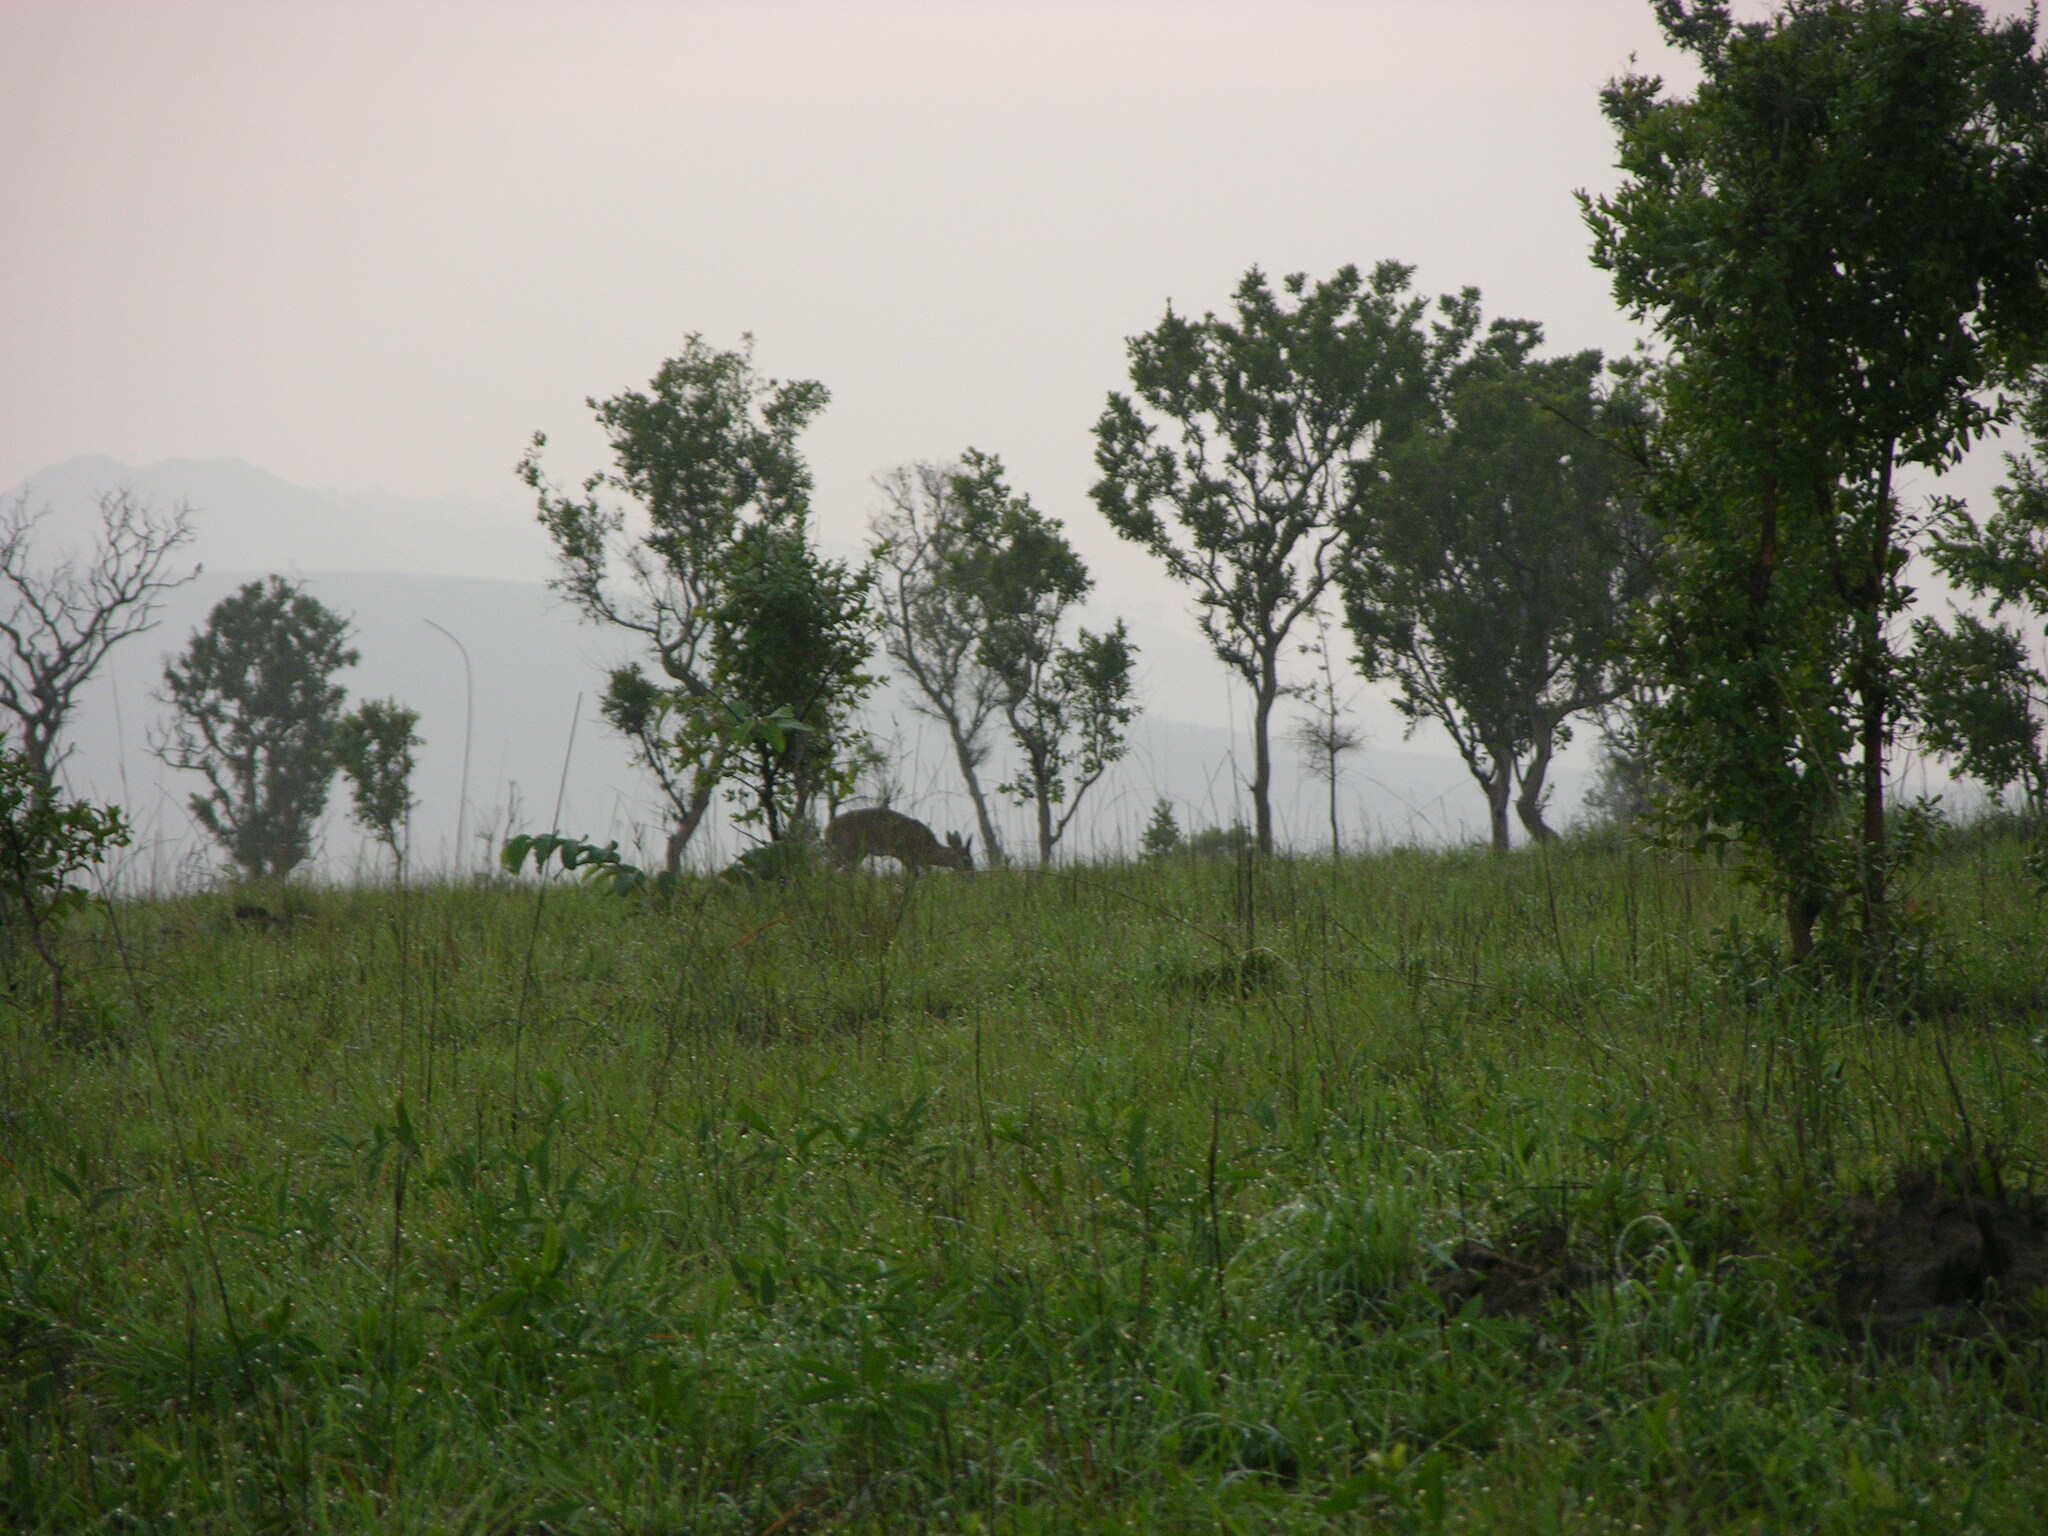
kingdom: Animalia
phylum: Chordata
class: Mammalia
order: Artiodactyla
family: Bovidae
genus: Sylvicapra
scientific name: Sylvicapra grimmia
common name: Bush duiker
